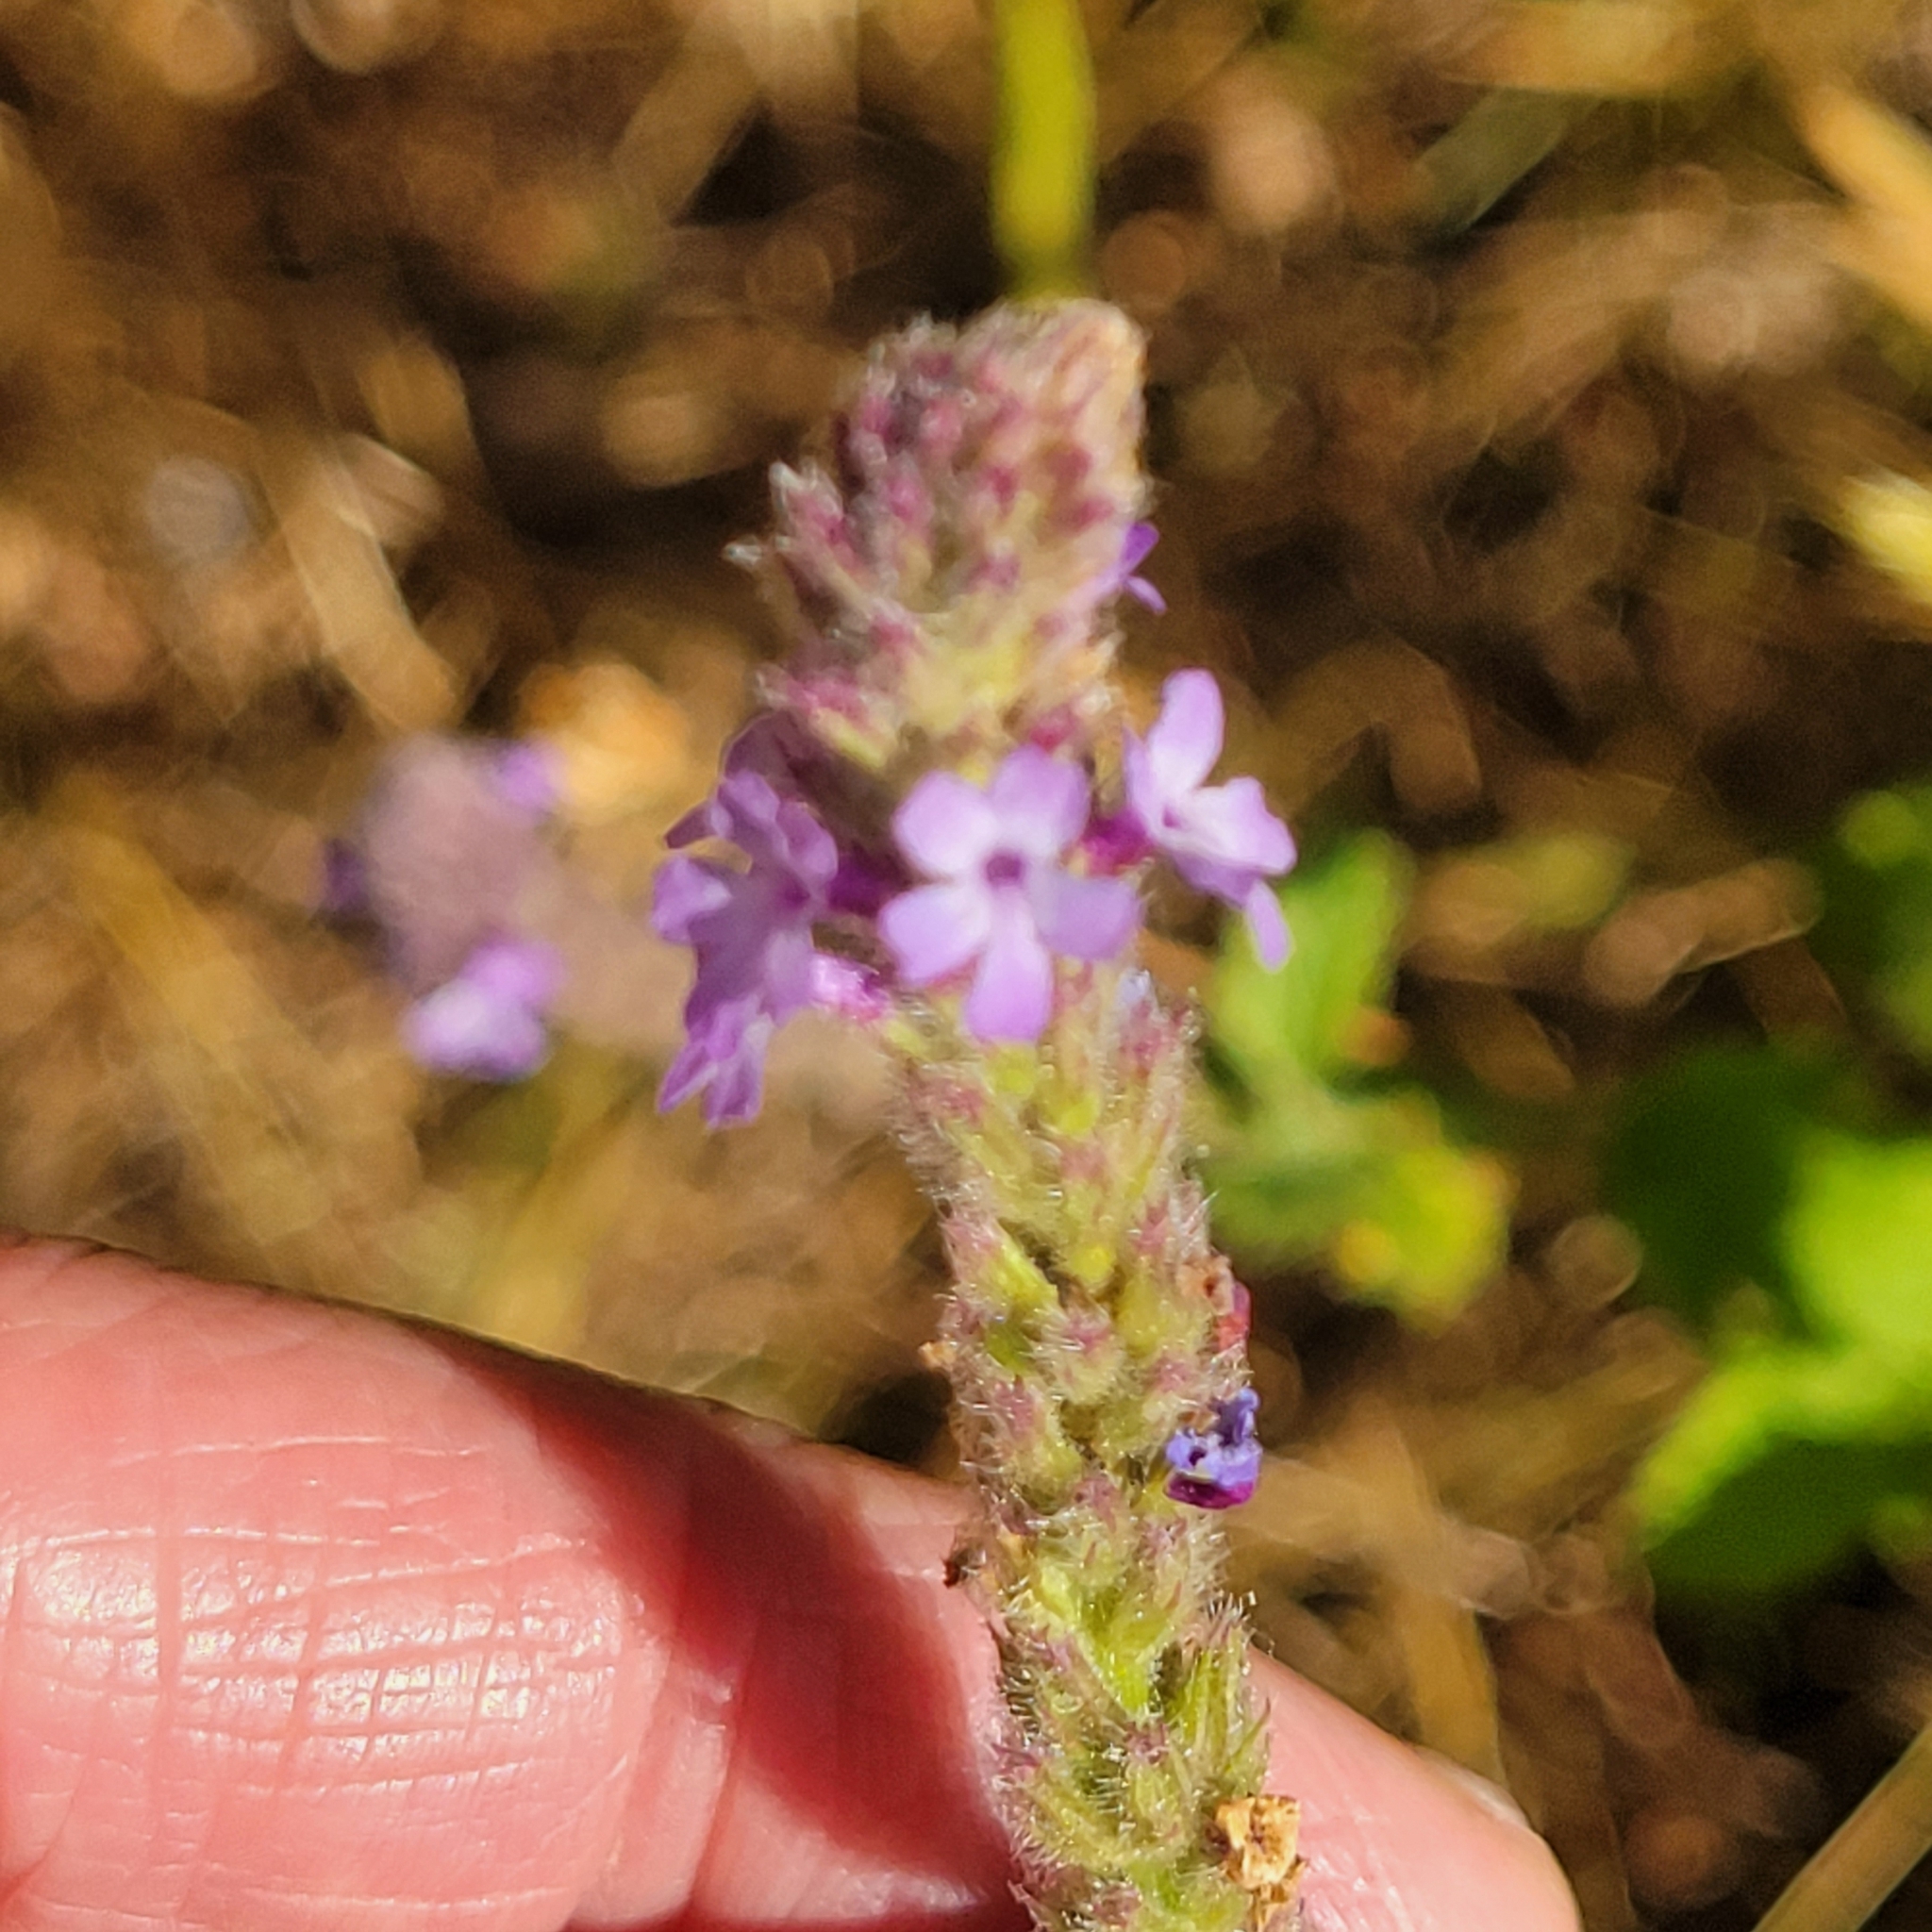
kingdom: Plantae
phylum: Tracheophyta
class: Magnoliopsida
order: Lamiales
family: Verbenaceae
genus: Verbena
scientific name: Verbena lasiostachys
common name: Vervain
